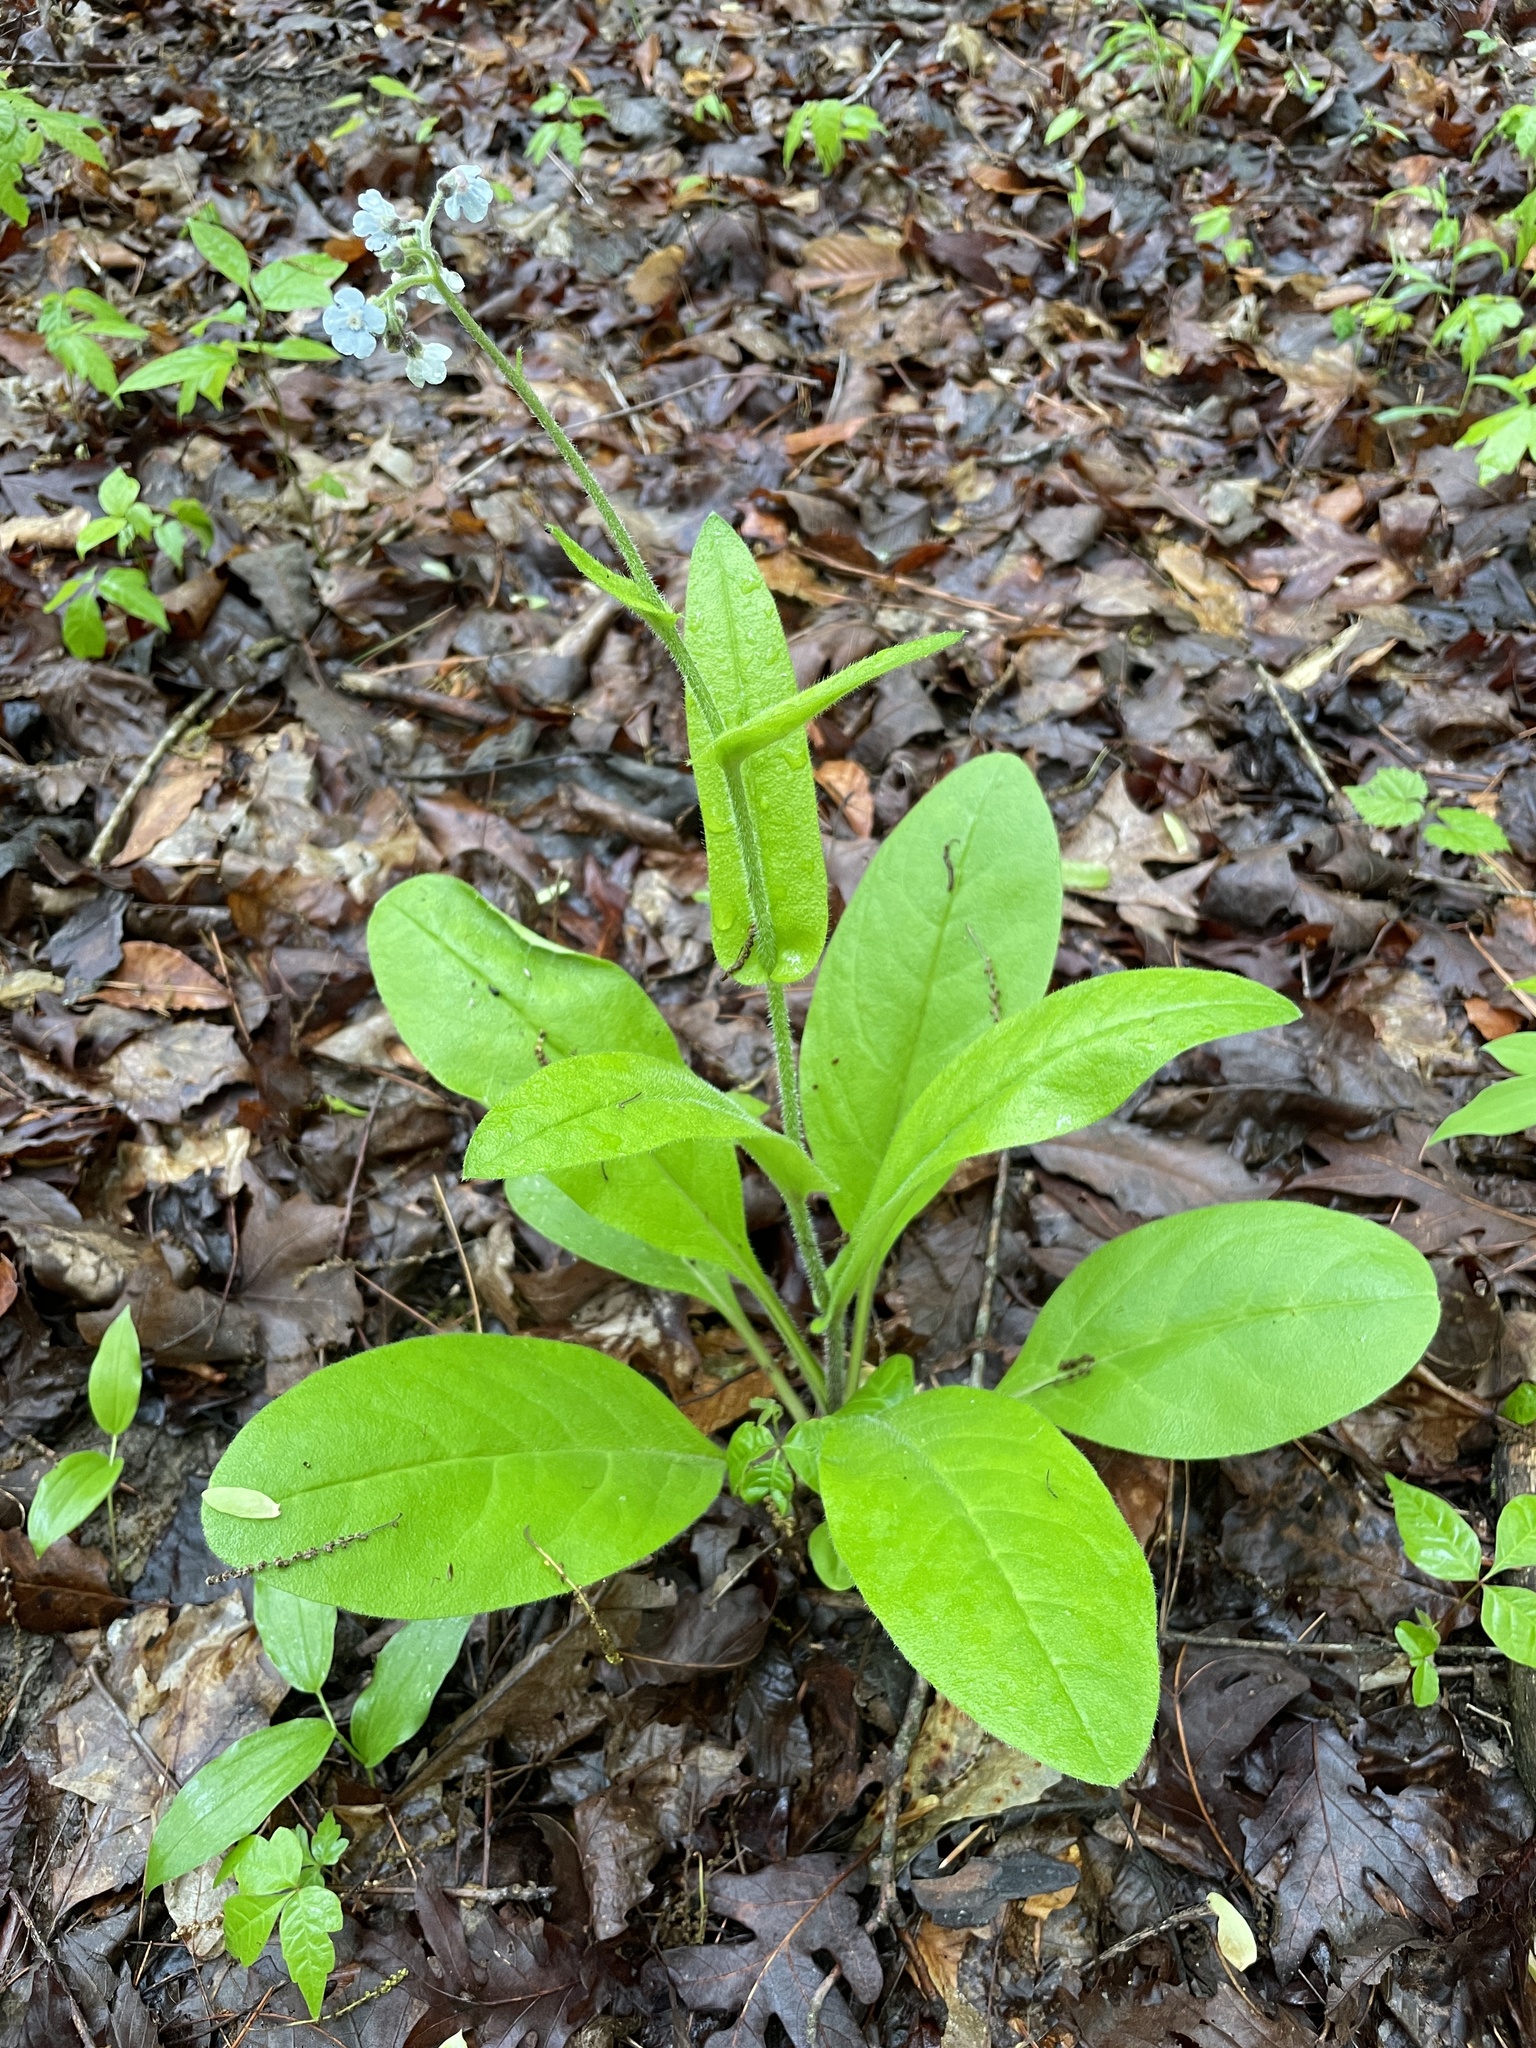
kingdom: Plantae
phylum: Tracheophyta
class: Magnoliopsida
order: Boraginales
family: Boraginaceae
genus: Andersonglossum
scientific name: Andersonglossum virginianum
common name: Wild comfrey
